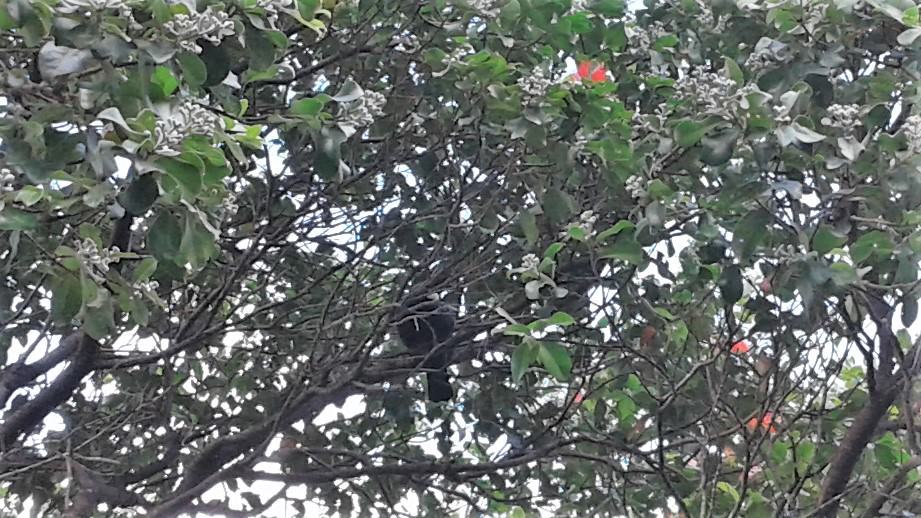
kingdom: Animalia
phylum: Chordata
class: Aves
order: Passeriformes
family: Meliphagidae
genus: Prosthemadera
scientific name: Prosthemadera novaeseelandiae
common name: Tui
